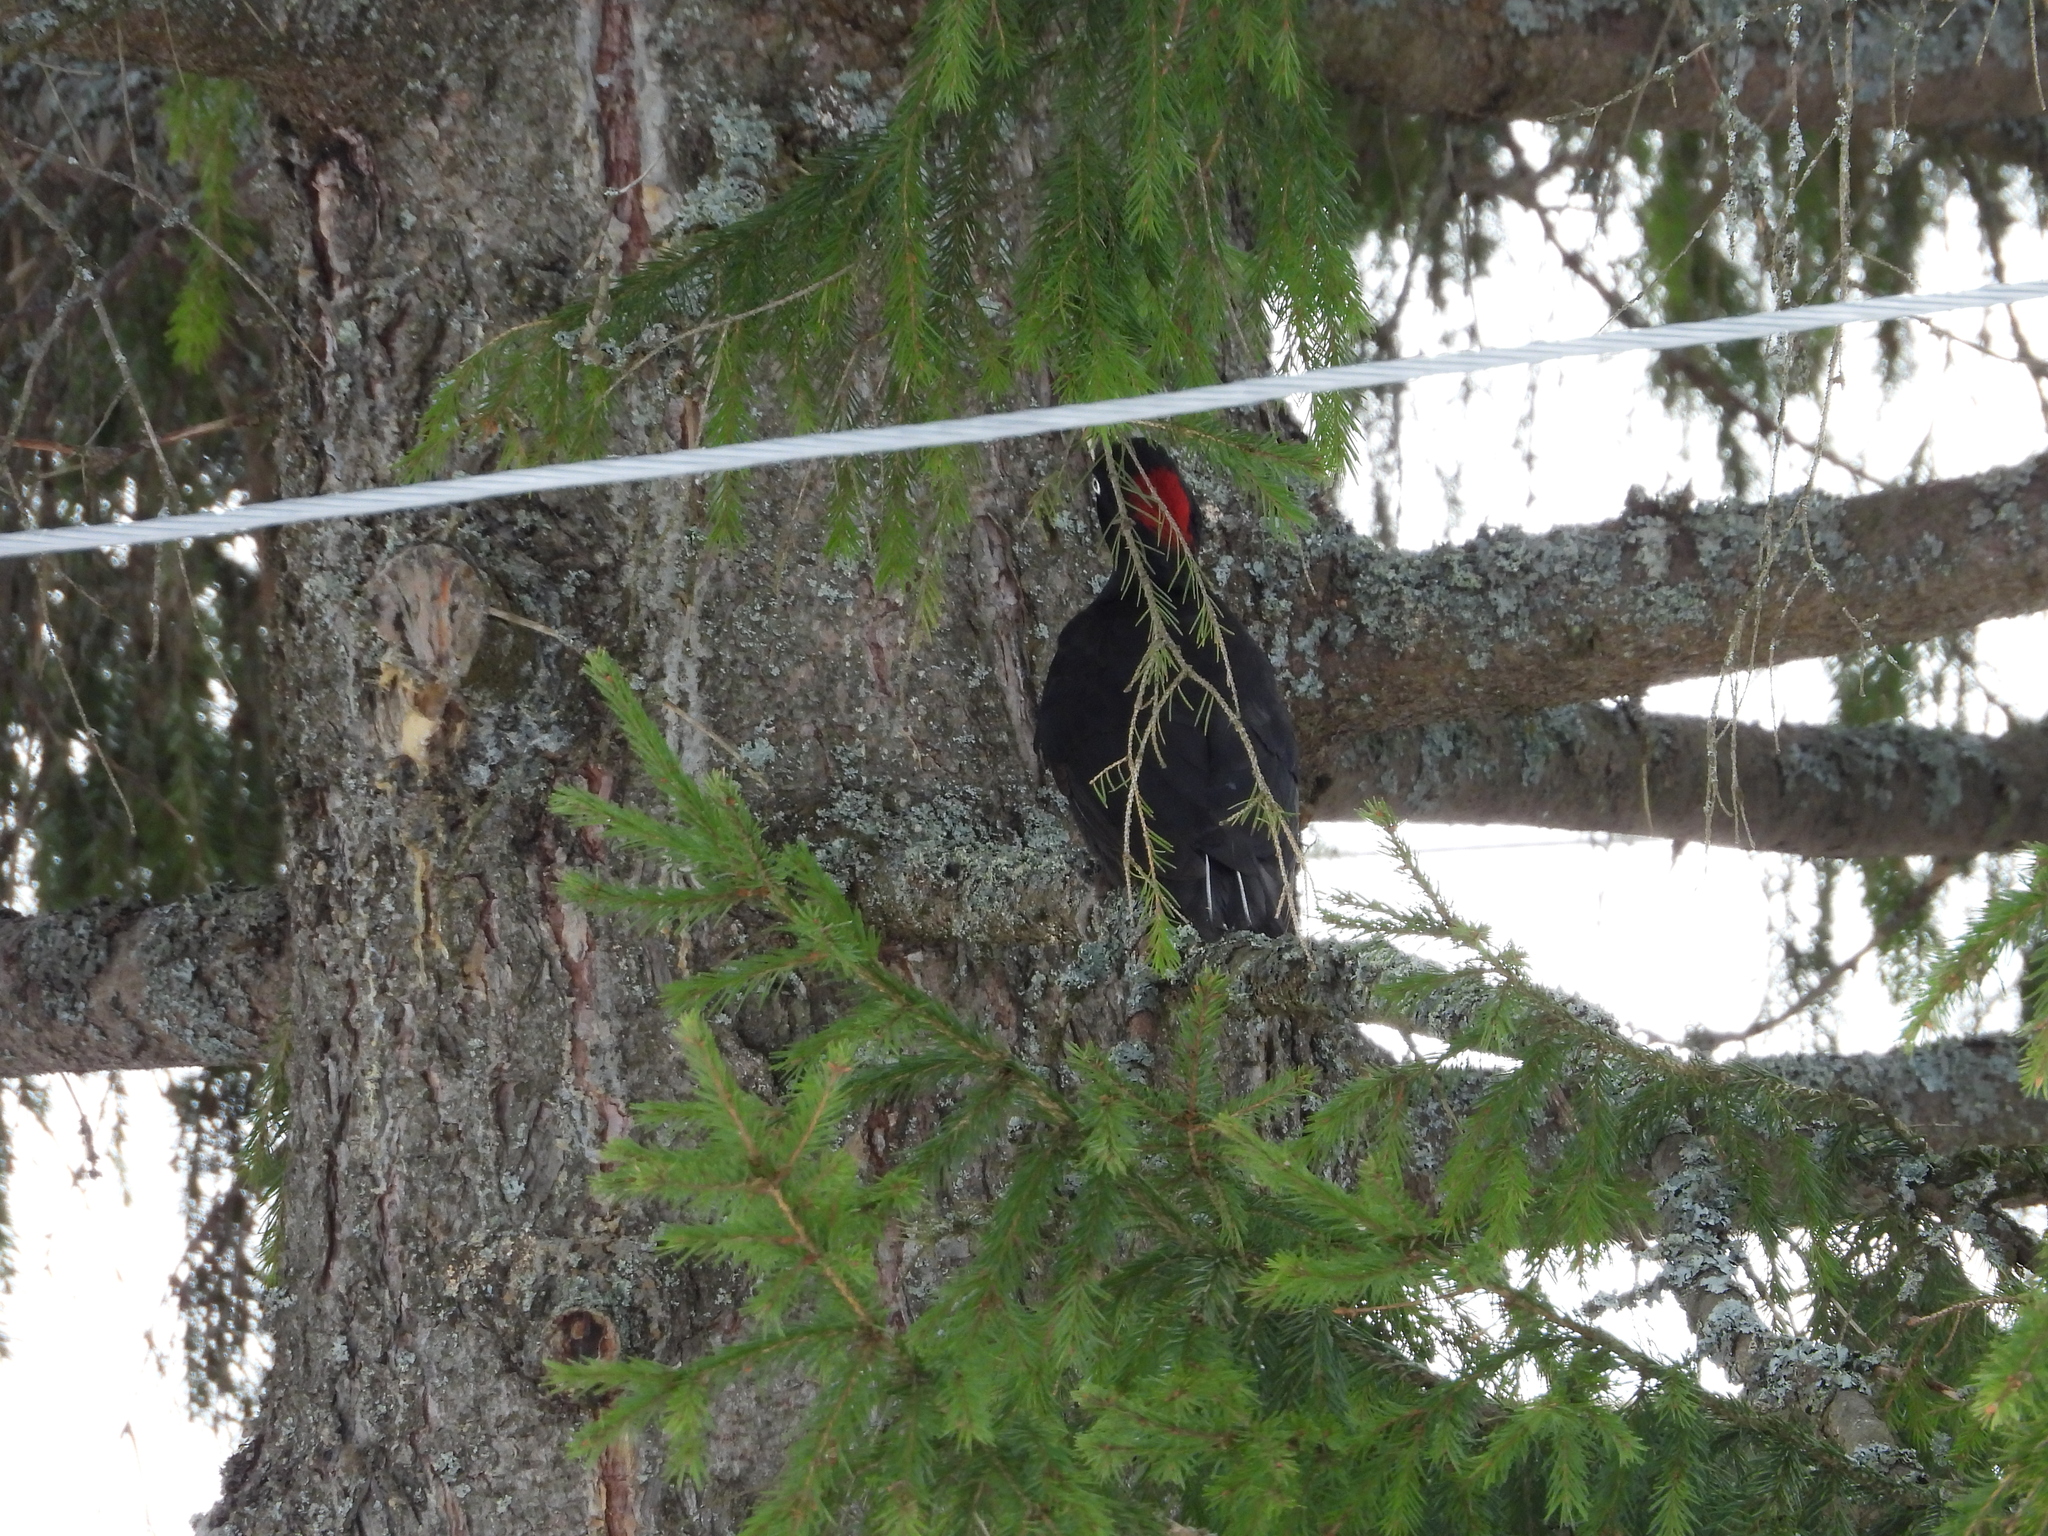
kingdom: Animalia
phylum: Chordata
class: Aves
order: Piciformes
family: Picidae
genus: Dryocopus
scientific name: Dryocopus martius
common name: Black woodpecker
